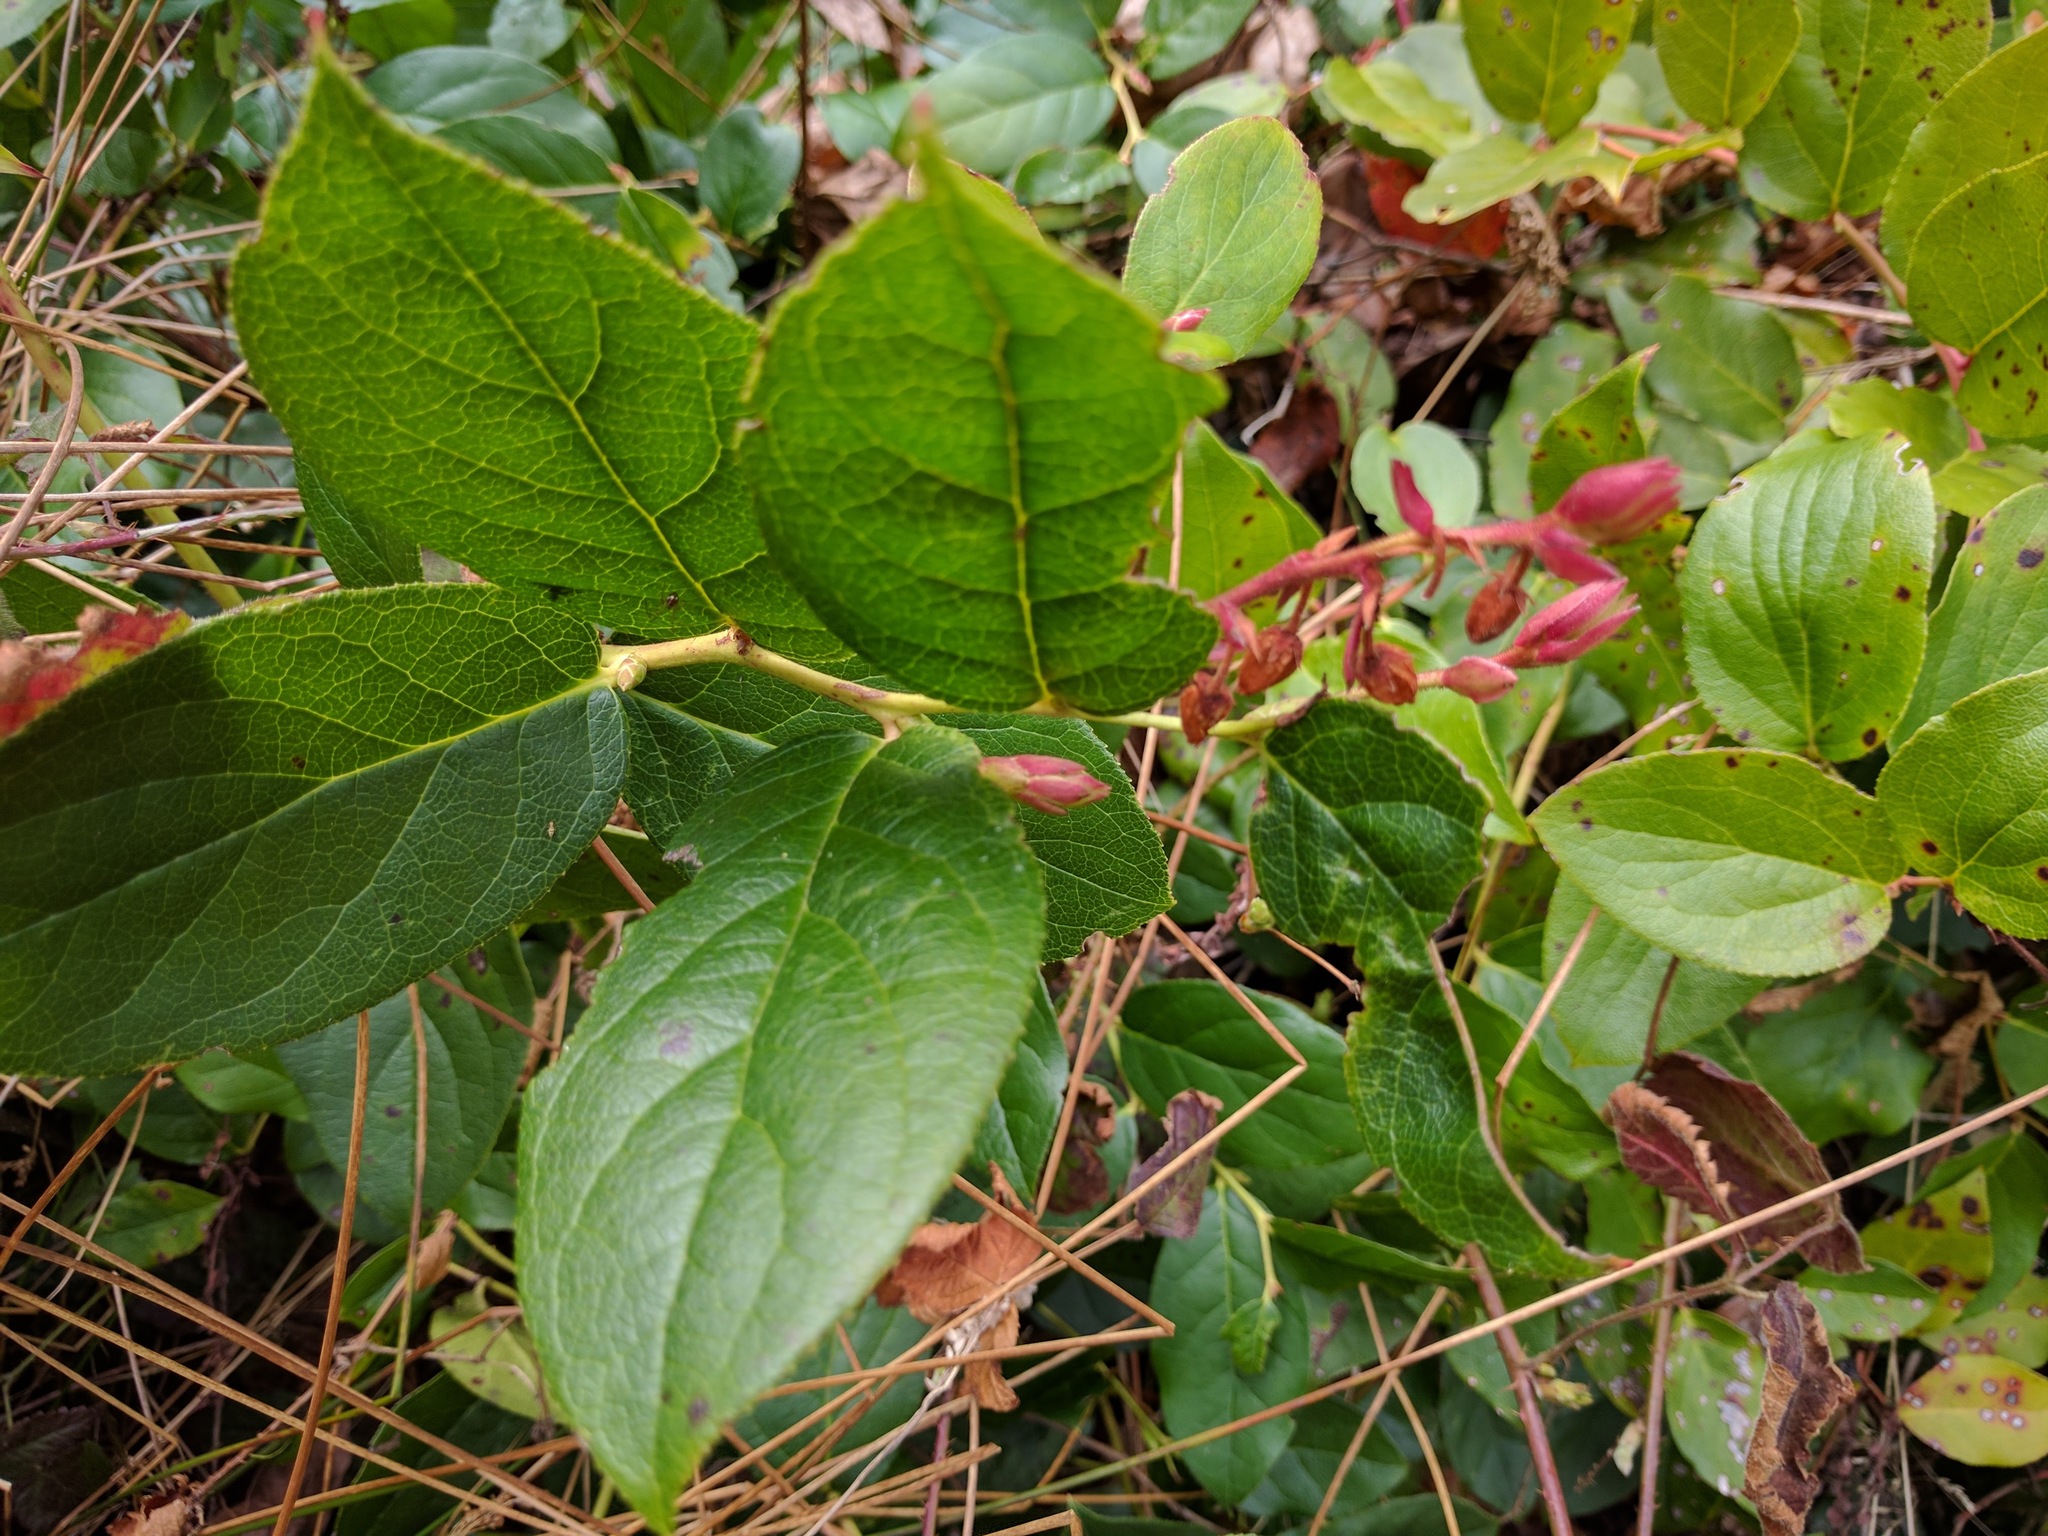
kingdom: Plantae
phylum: Tracheophyta
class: Magnoliopsida
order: Ericales
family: Ericaceae
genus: Gaultheria
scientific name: Gaultheria shallon
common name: Shallon
